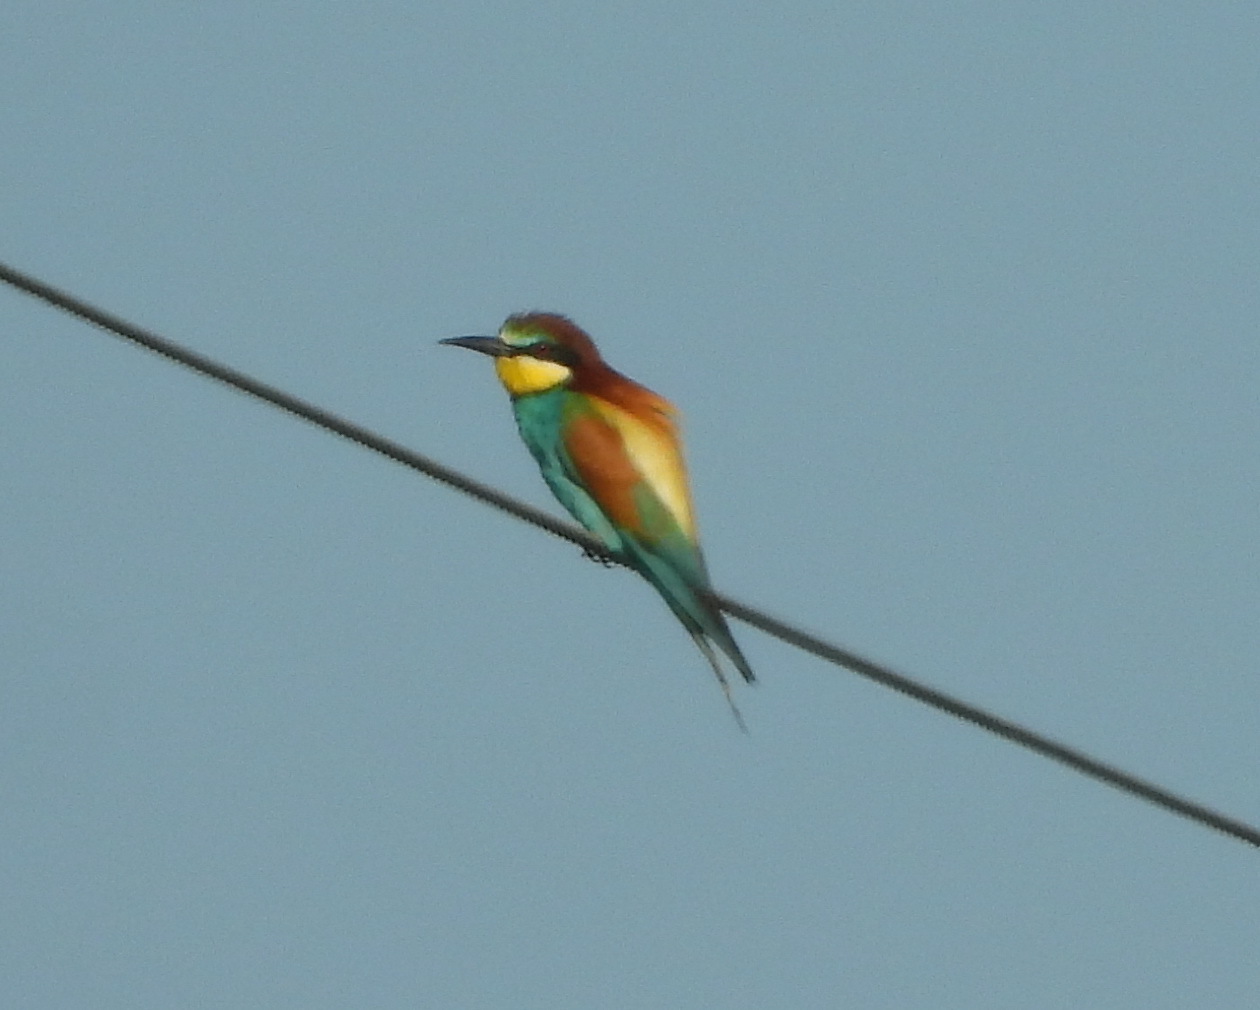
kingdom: Animalia
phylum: Chordata
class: Aves
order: Coraciiformes
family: Meropidae
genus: Merops
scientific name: Merops apiaster
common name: European bee-eater
